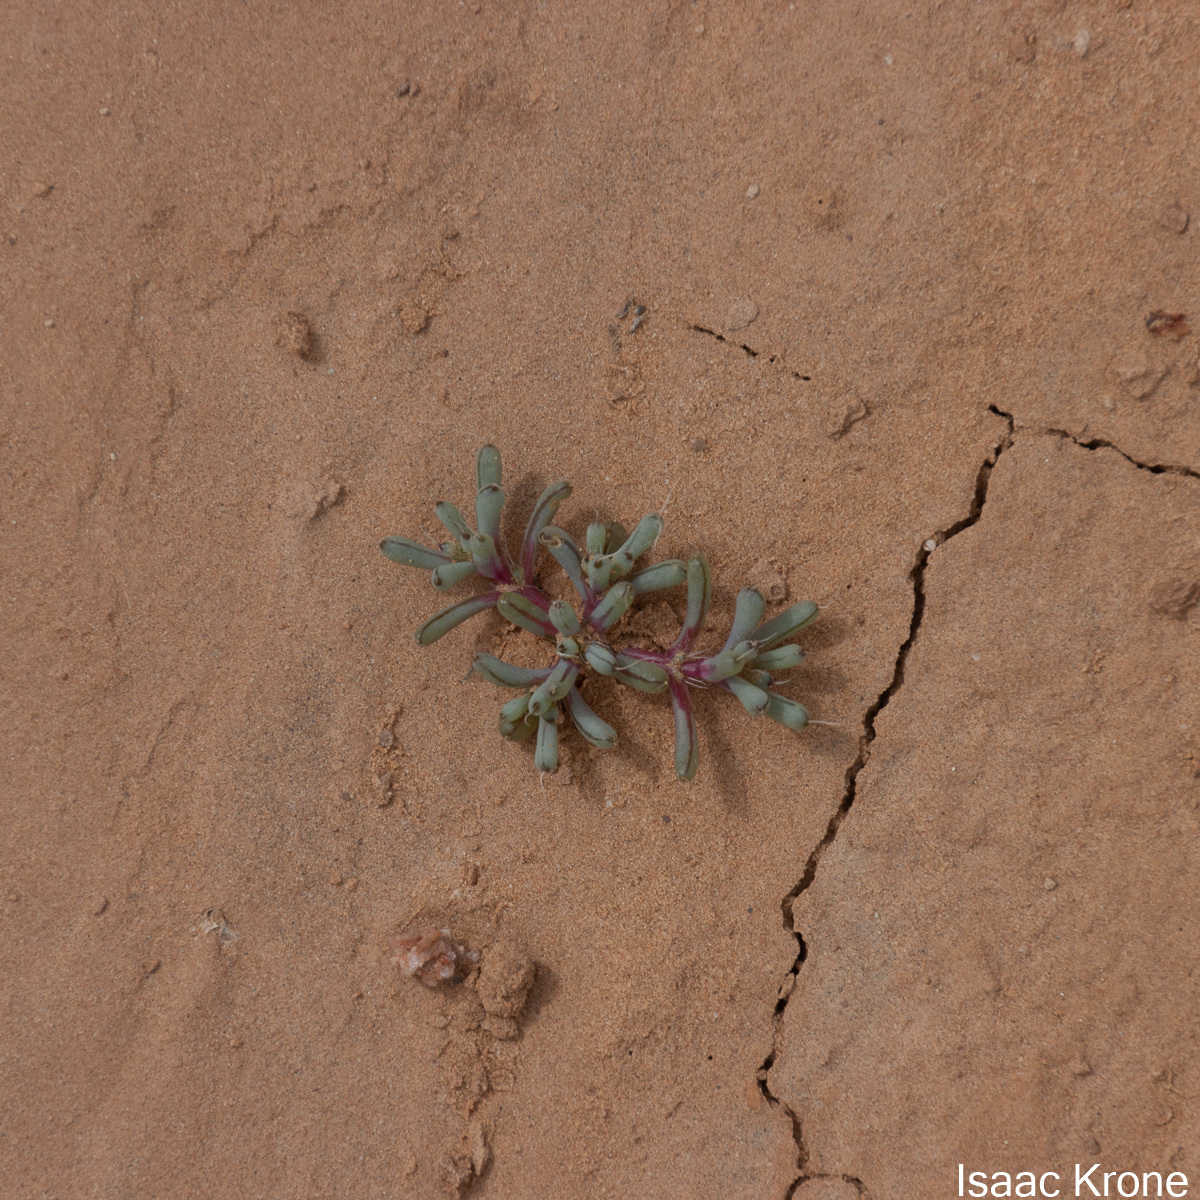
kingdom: Plantae
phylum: Tracheophyta
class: Magnoliopsida
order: Caryophyllales
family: Amaranthaceae
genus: Halogeton
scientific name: Halogeton glomeratus
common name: Saltlover
